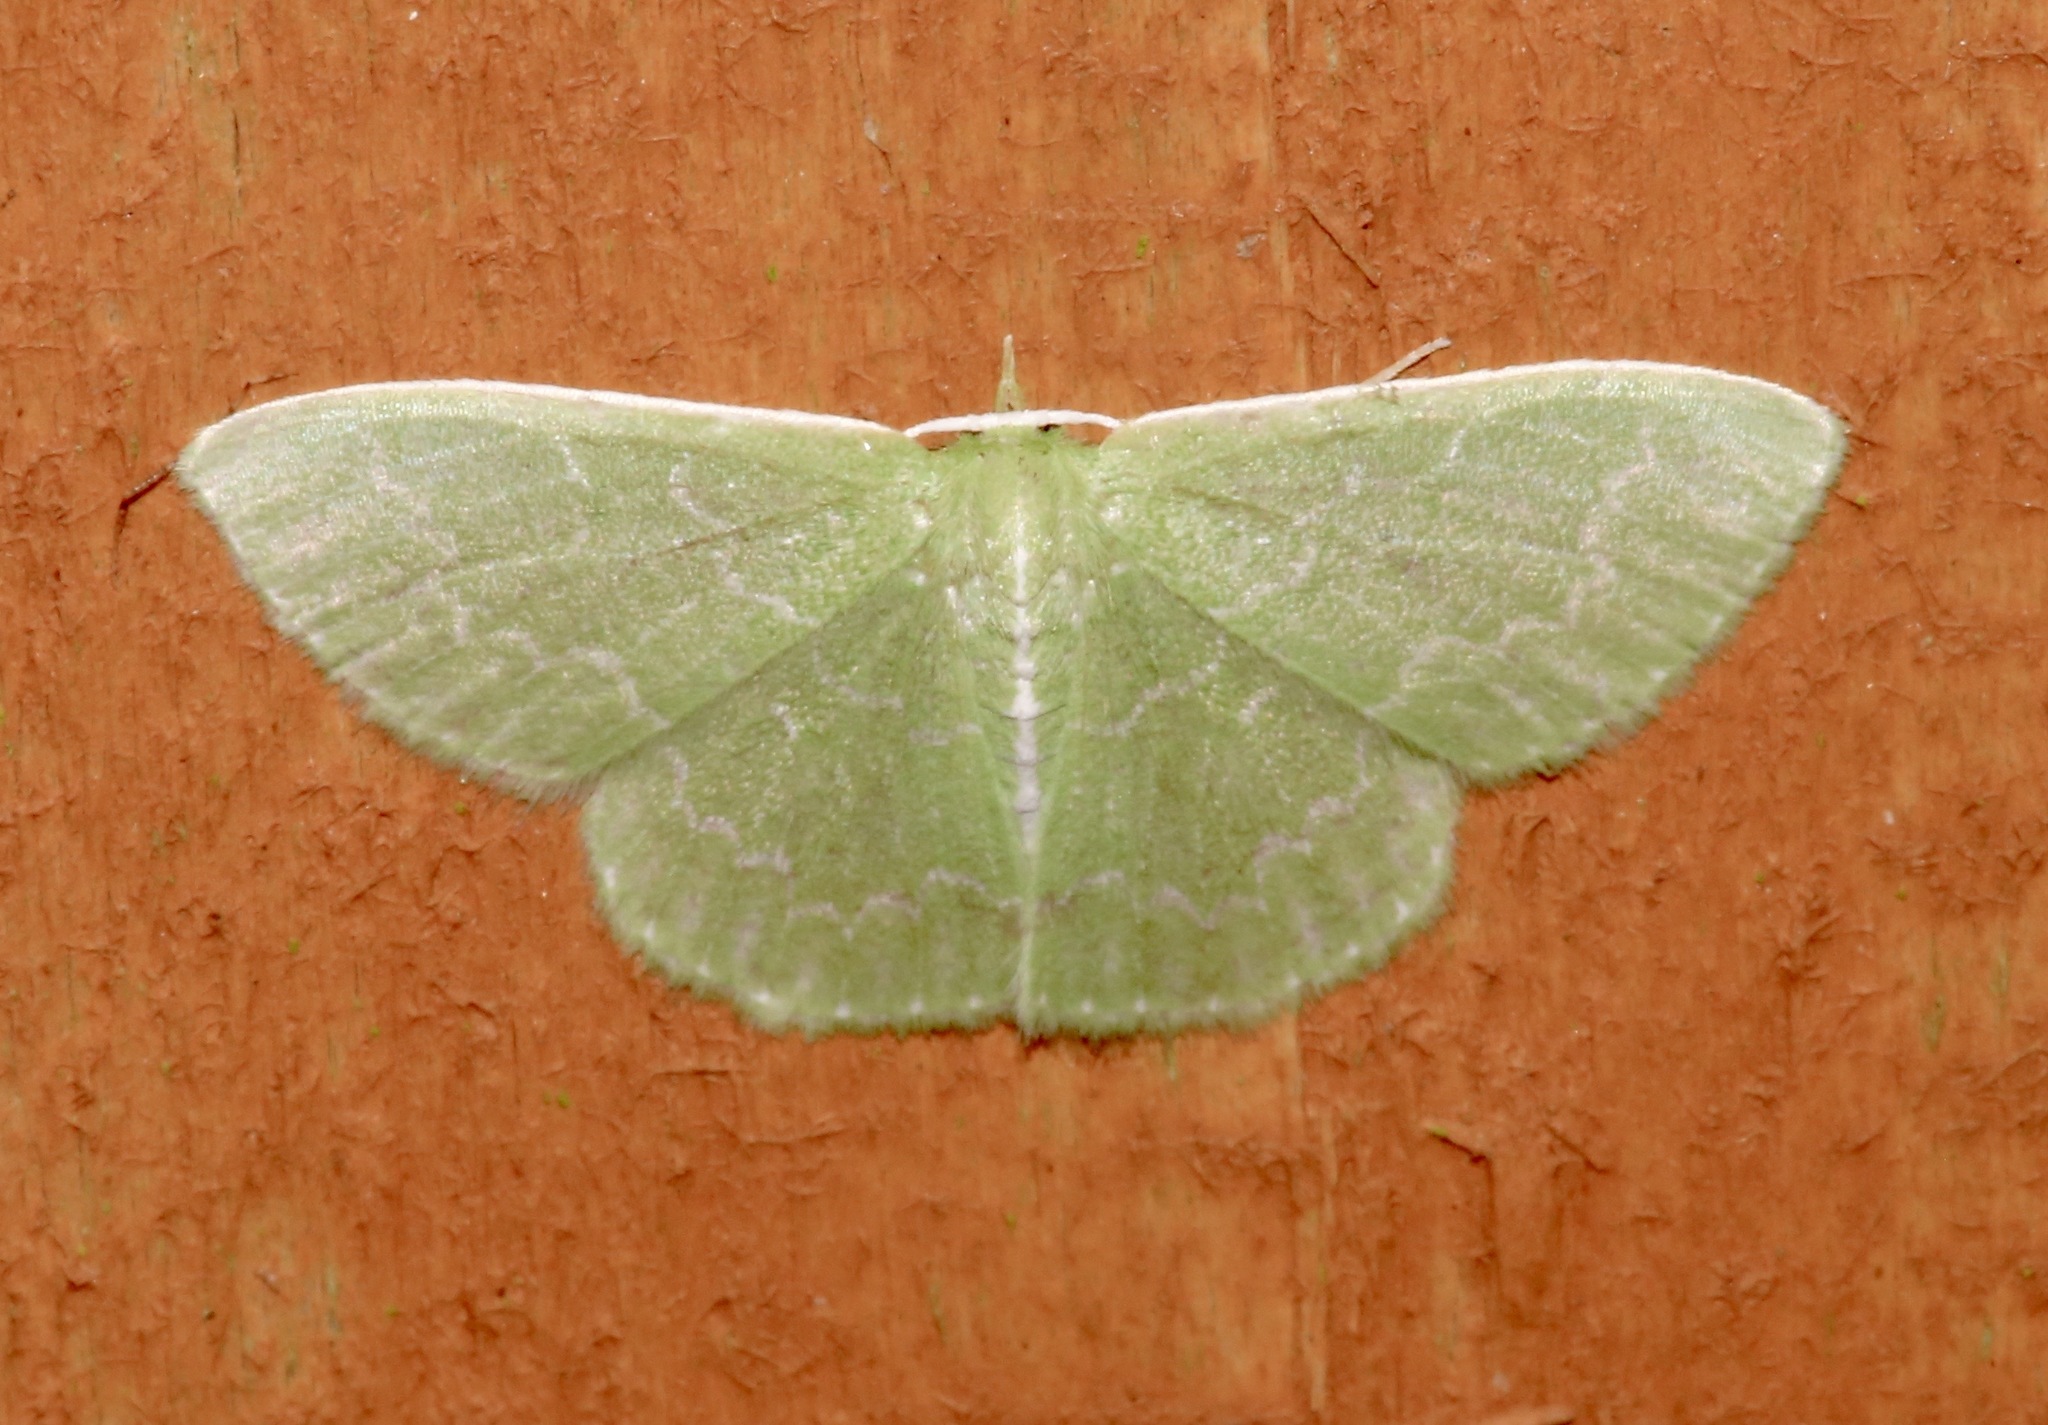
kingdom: Animalia
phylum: Arthropoda
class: Insecta
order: Lepidoptera
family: Geometridae
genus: Synchlora
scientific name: Synchlora frondaria
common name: Southern emerald
